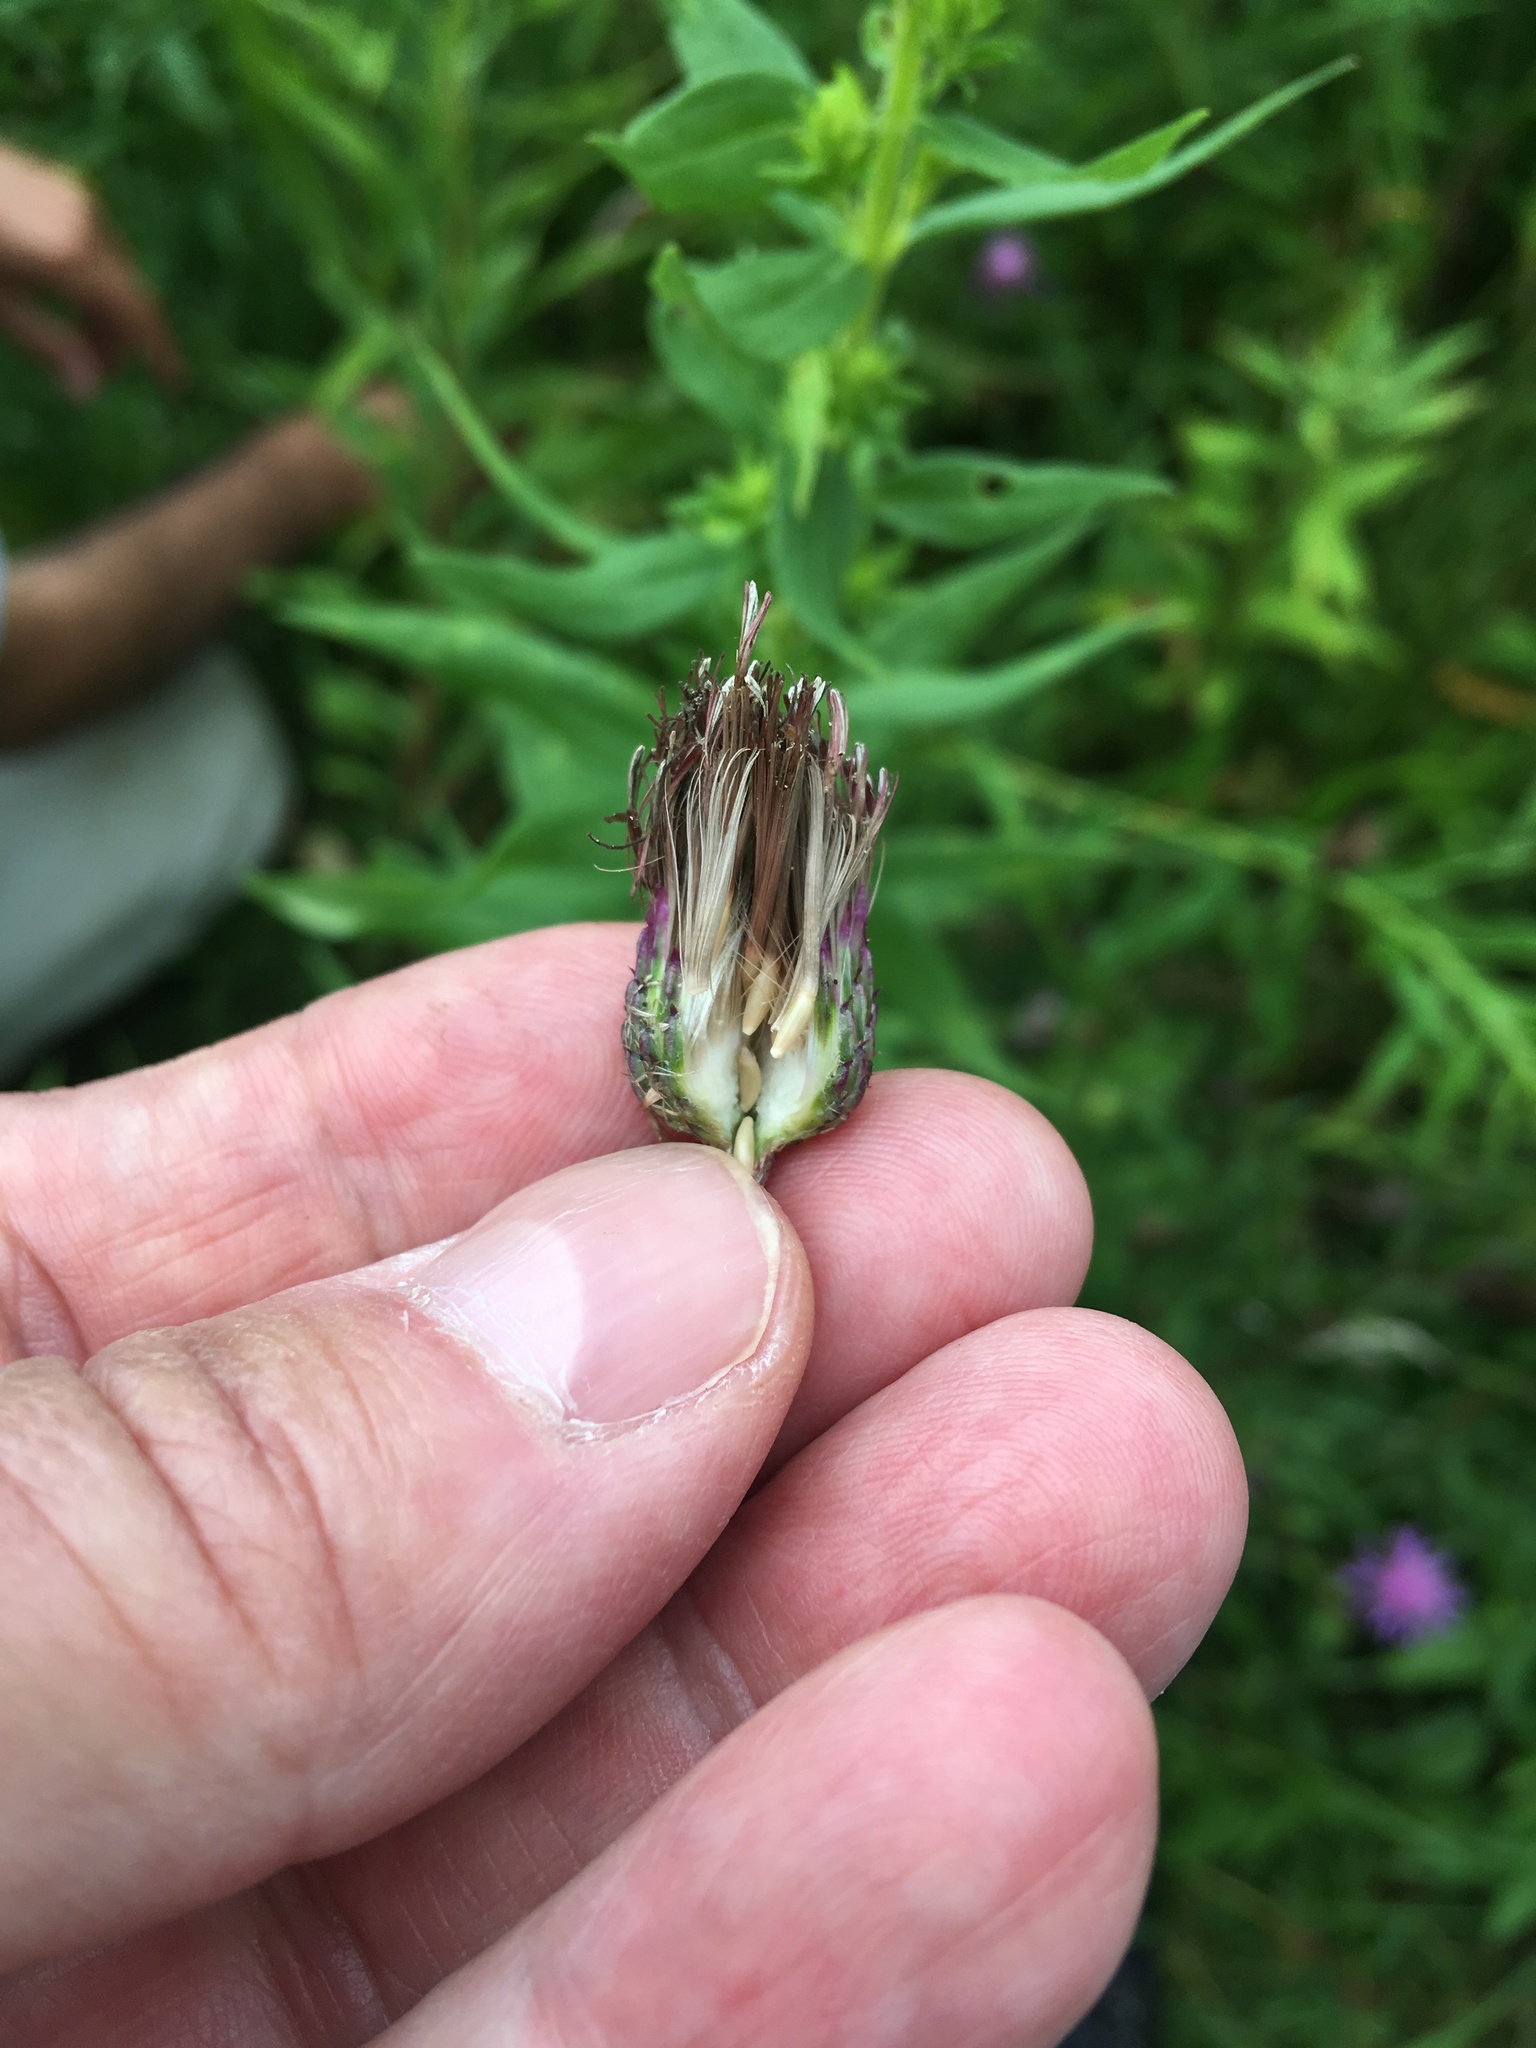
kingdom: Plantae
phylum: Tracheophyta
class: Magnoliopsida
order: Asterales
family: Asteraceae
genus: Cirsium
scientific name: Cirsium palustre
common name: Marsh thistle
